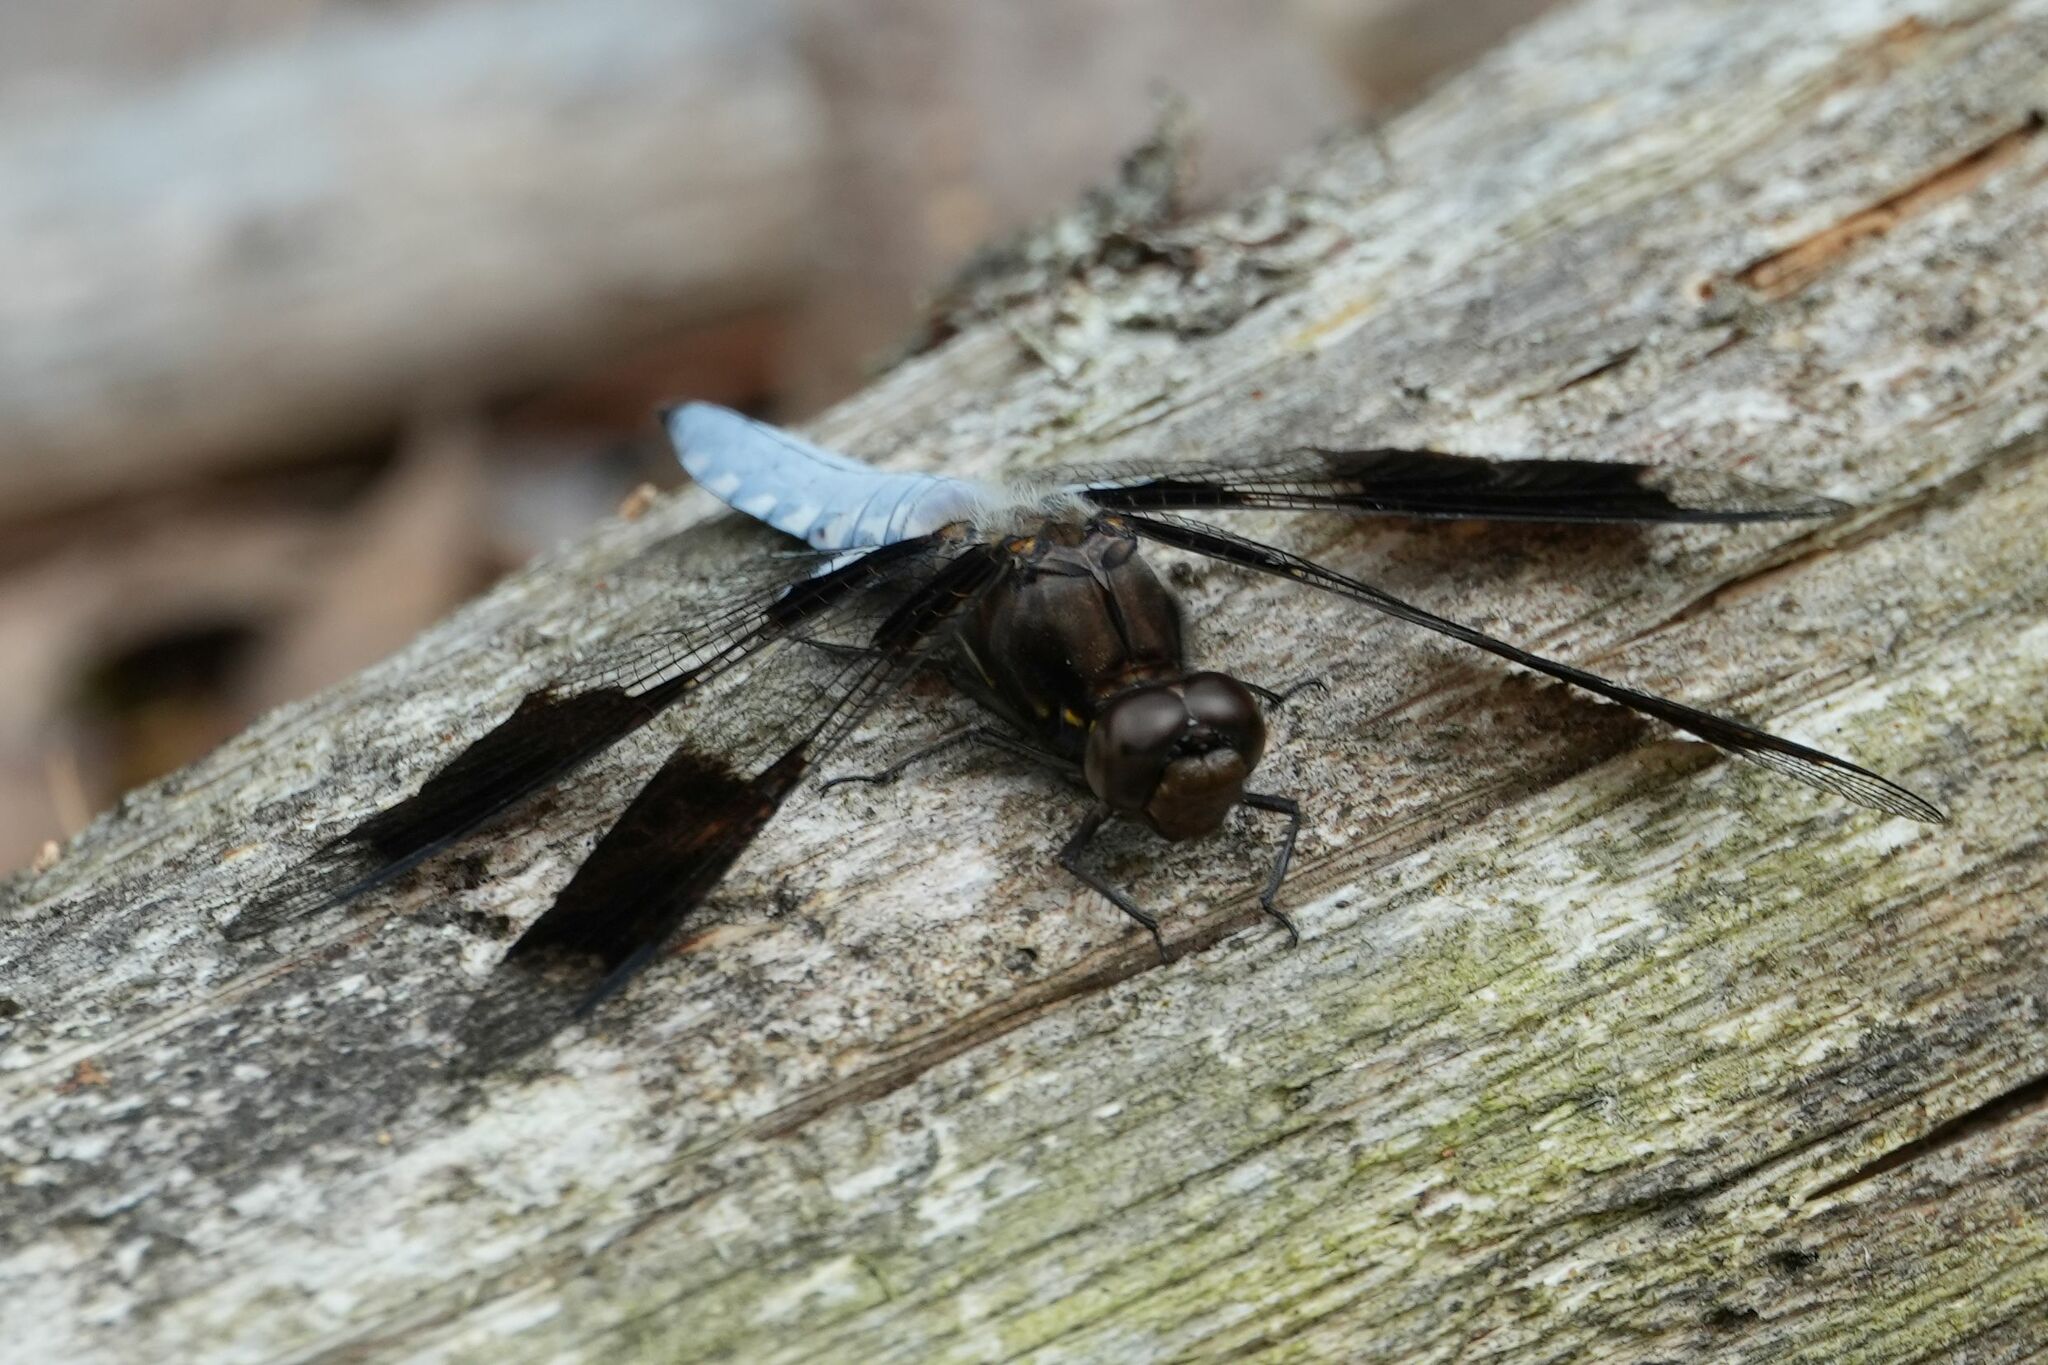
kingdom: Animalia
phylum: Arthropoda
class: Insecta
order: Odonata
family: Libellulidae
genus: Plathemis
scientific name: Plathemis lydia
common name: Common whitetail
